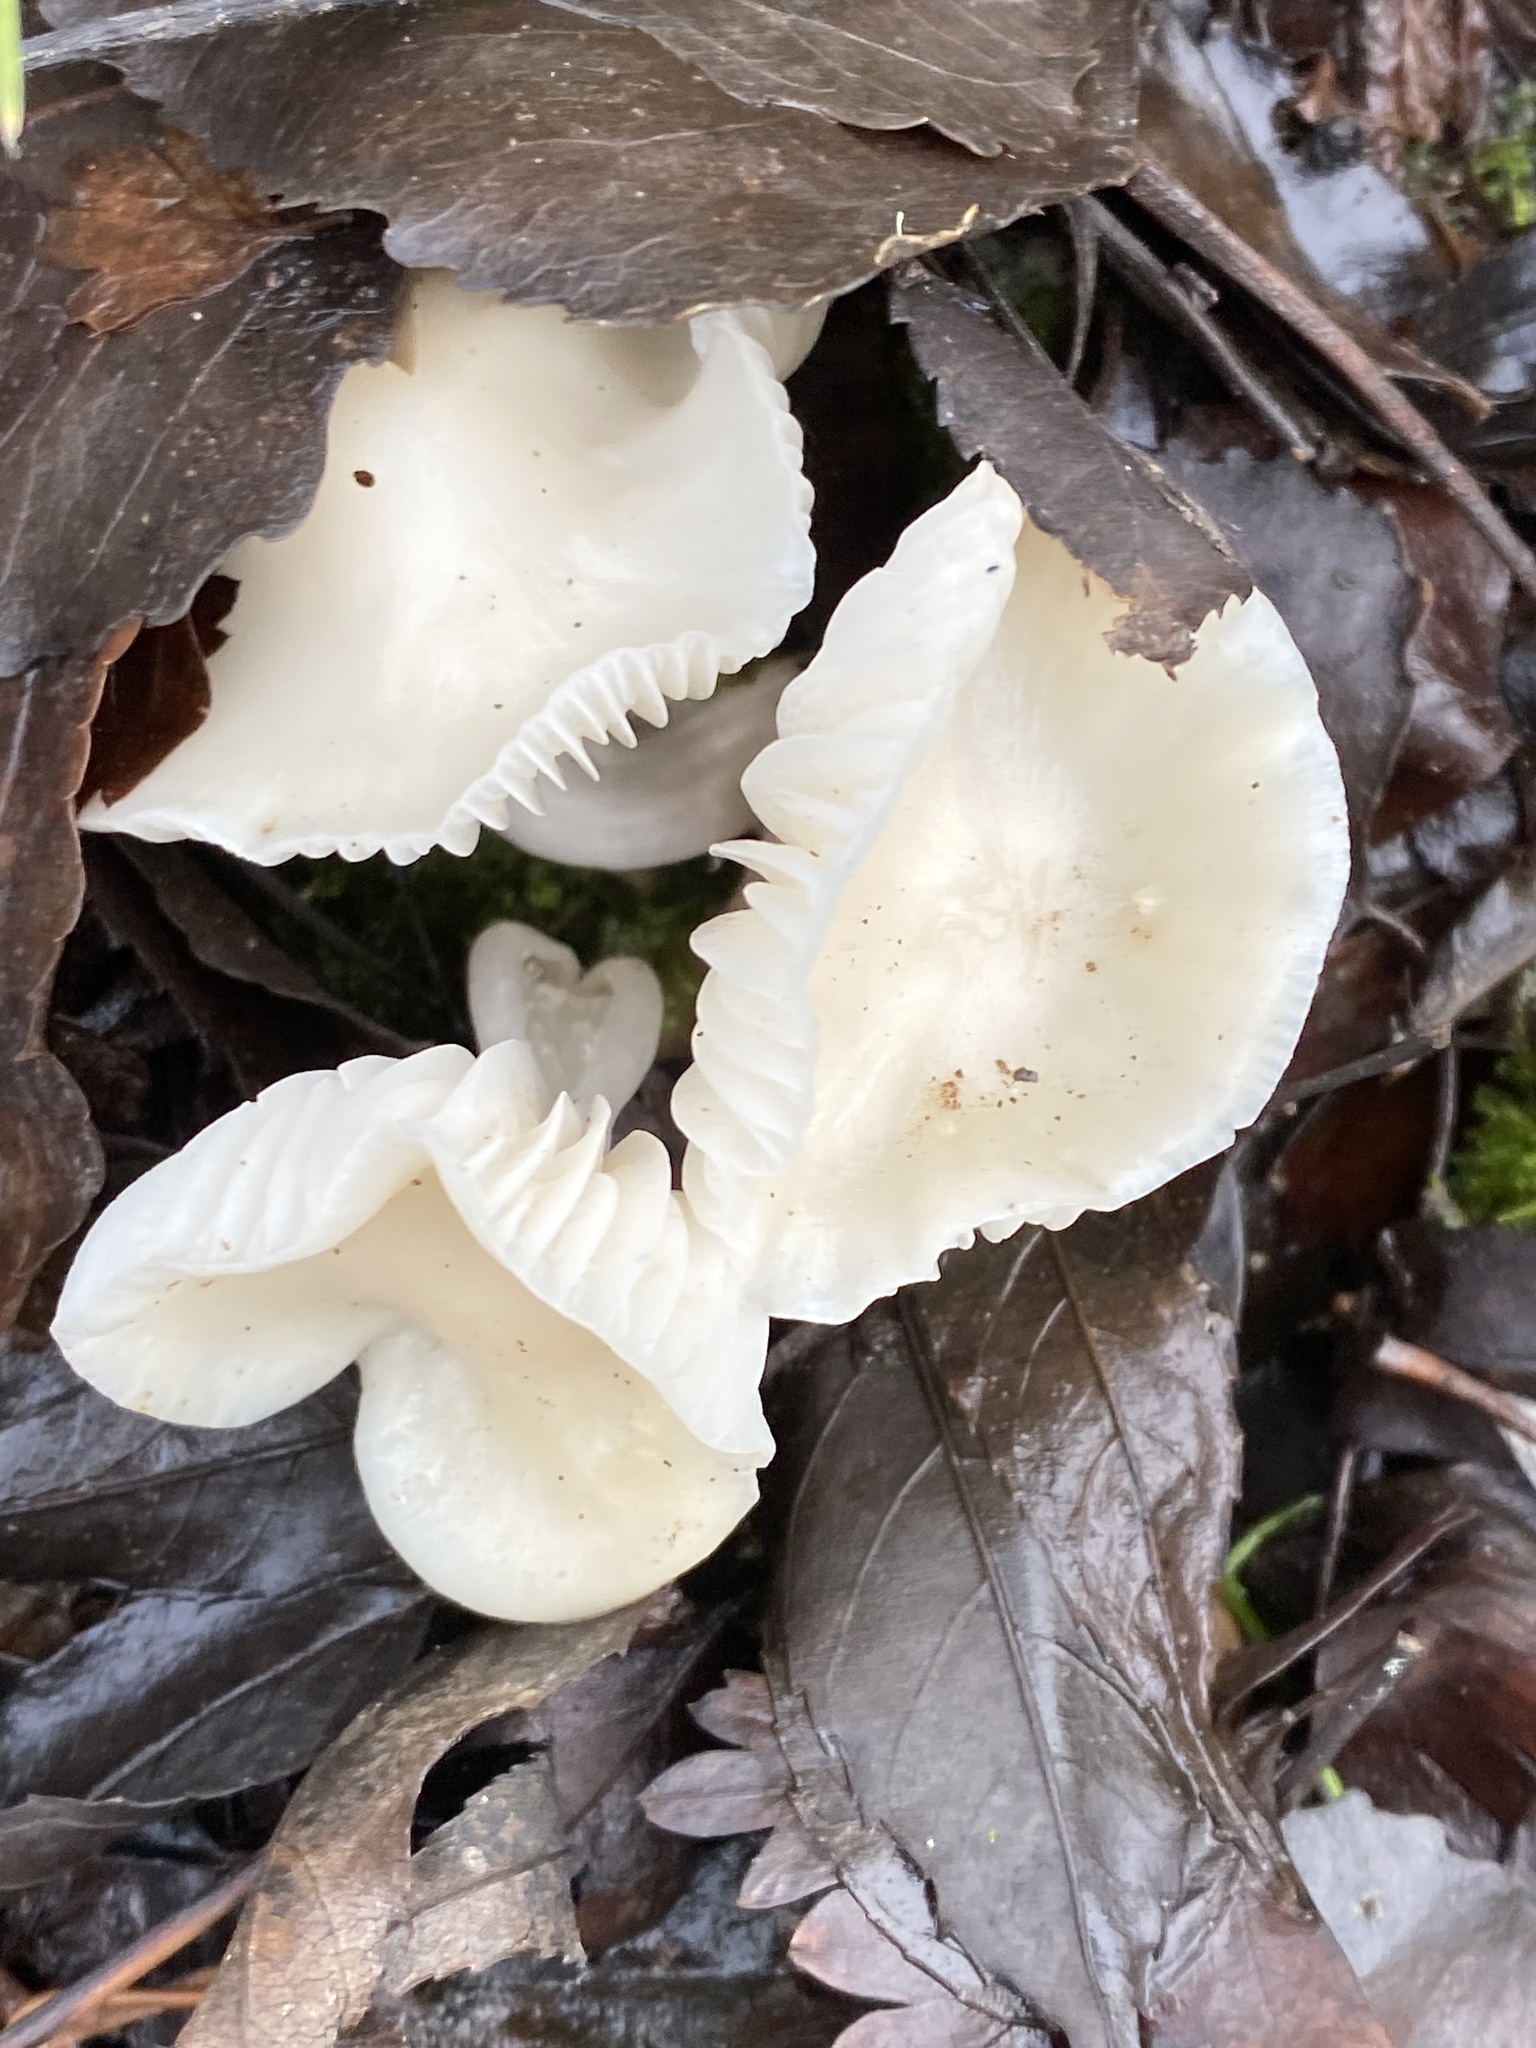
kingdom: Fungi
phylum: Basidiomycota
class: Agaricomycetes
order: Agaricales
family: Hygrophoraceae
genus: Cuphophyllus
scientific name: Cuphophyllus virgineus
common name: Snowy waxcap
